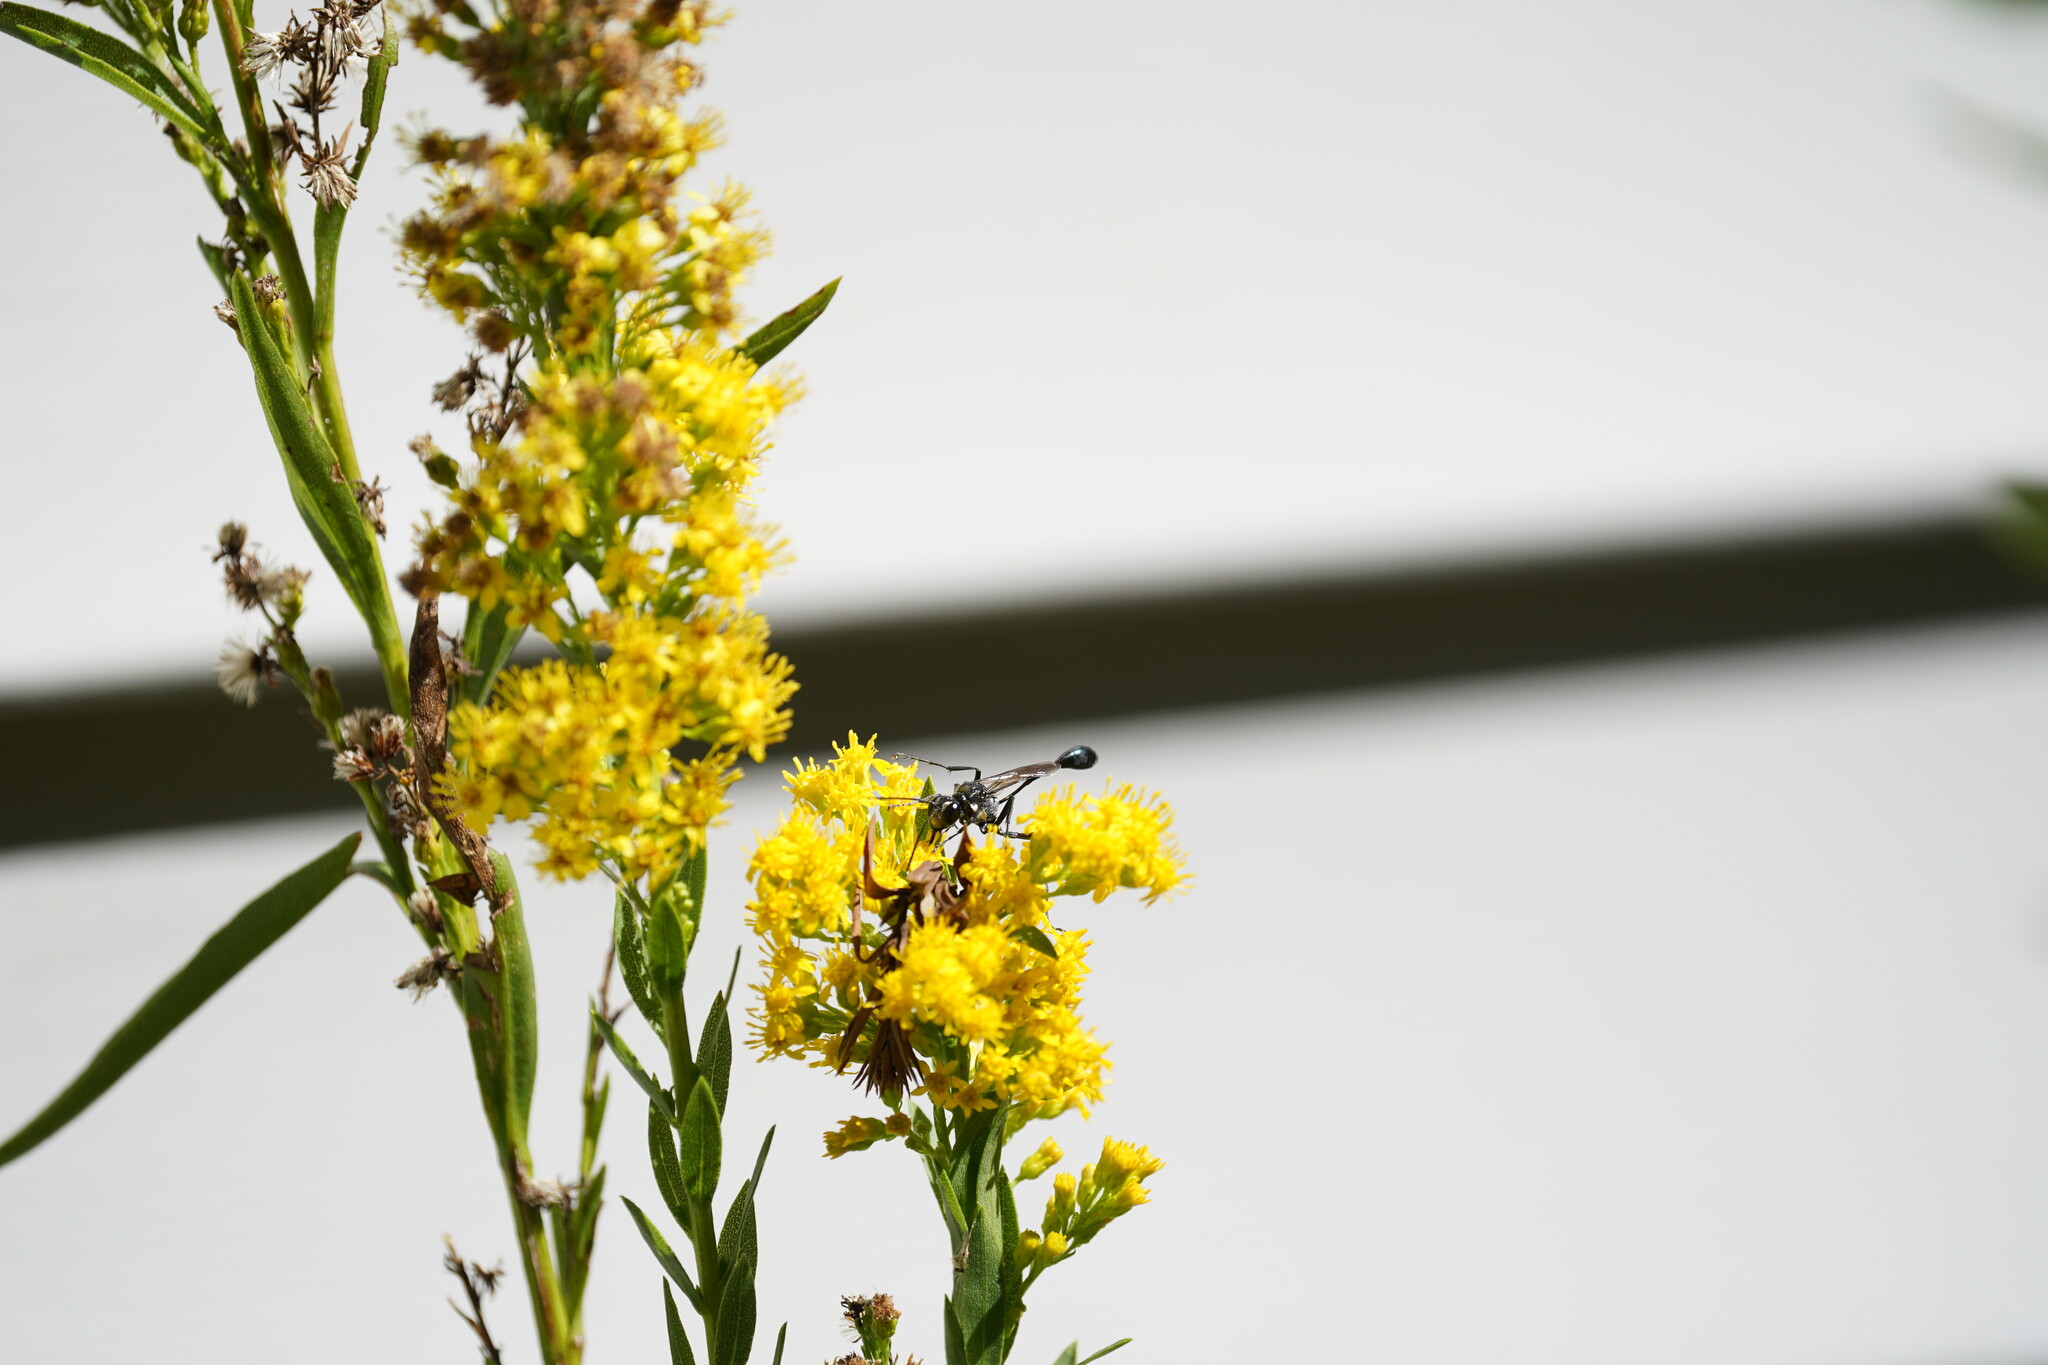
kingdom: Animalia
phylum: Arthropoda
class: Insecta
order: Hymenoptera
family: Sphecidae
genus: Eremnophila
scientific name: Eremnophila aureonotata
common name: Gold-marked thread-waisted wasp
